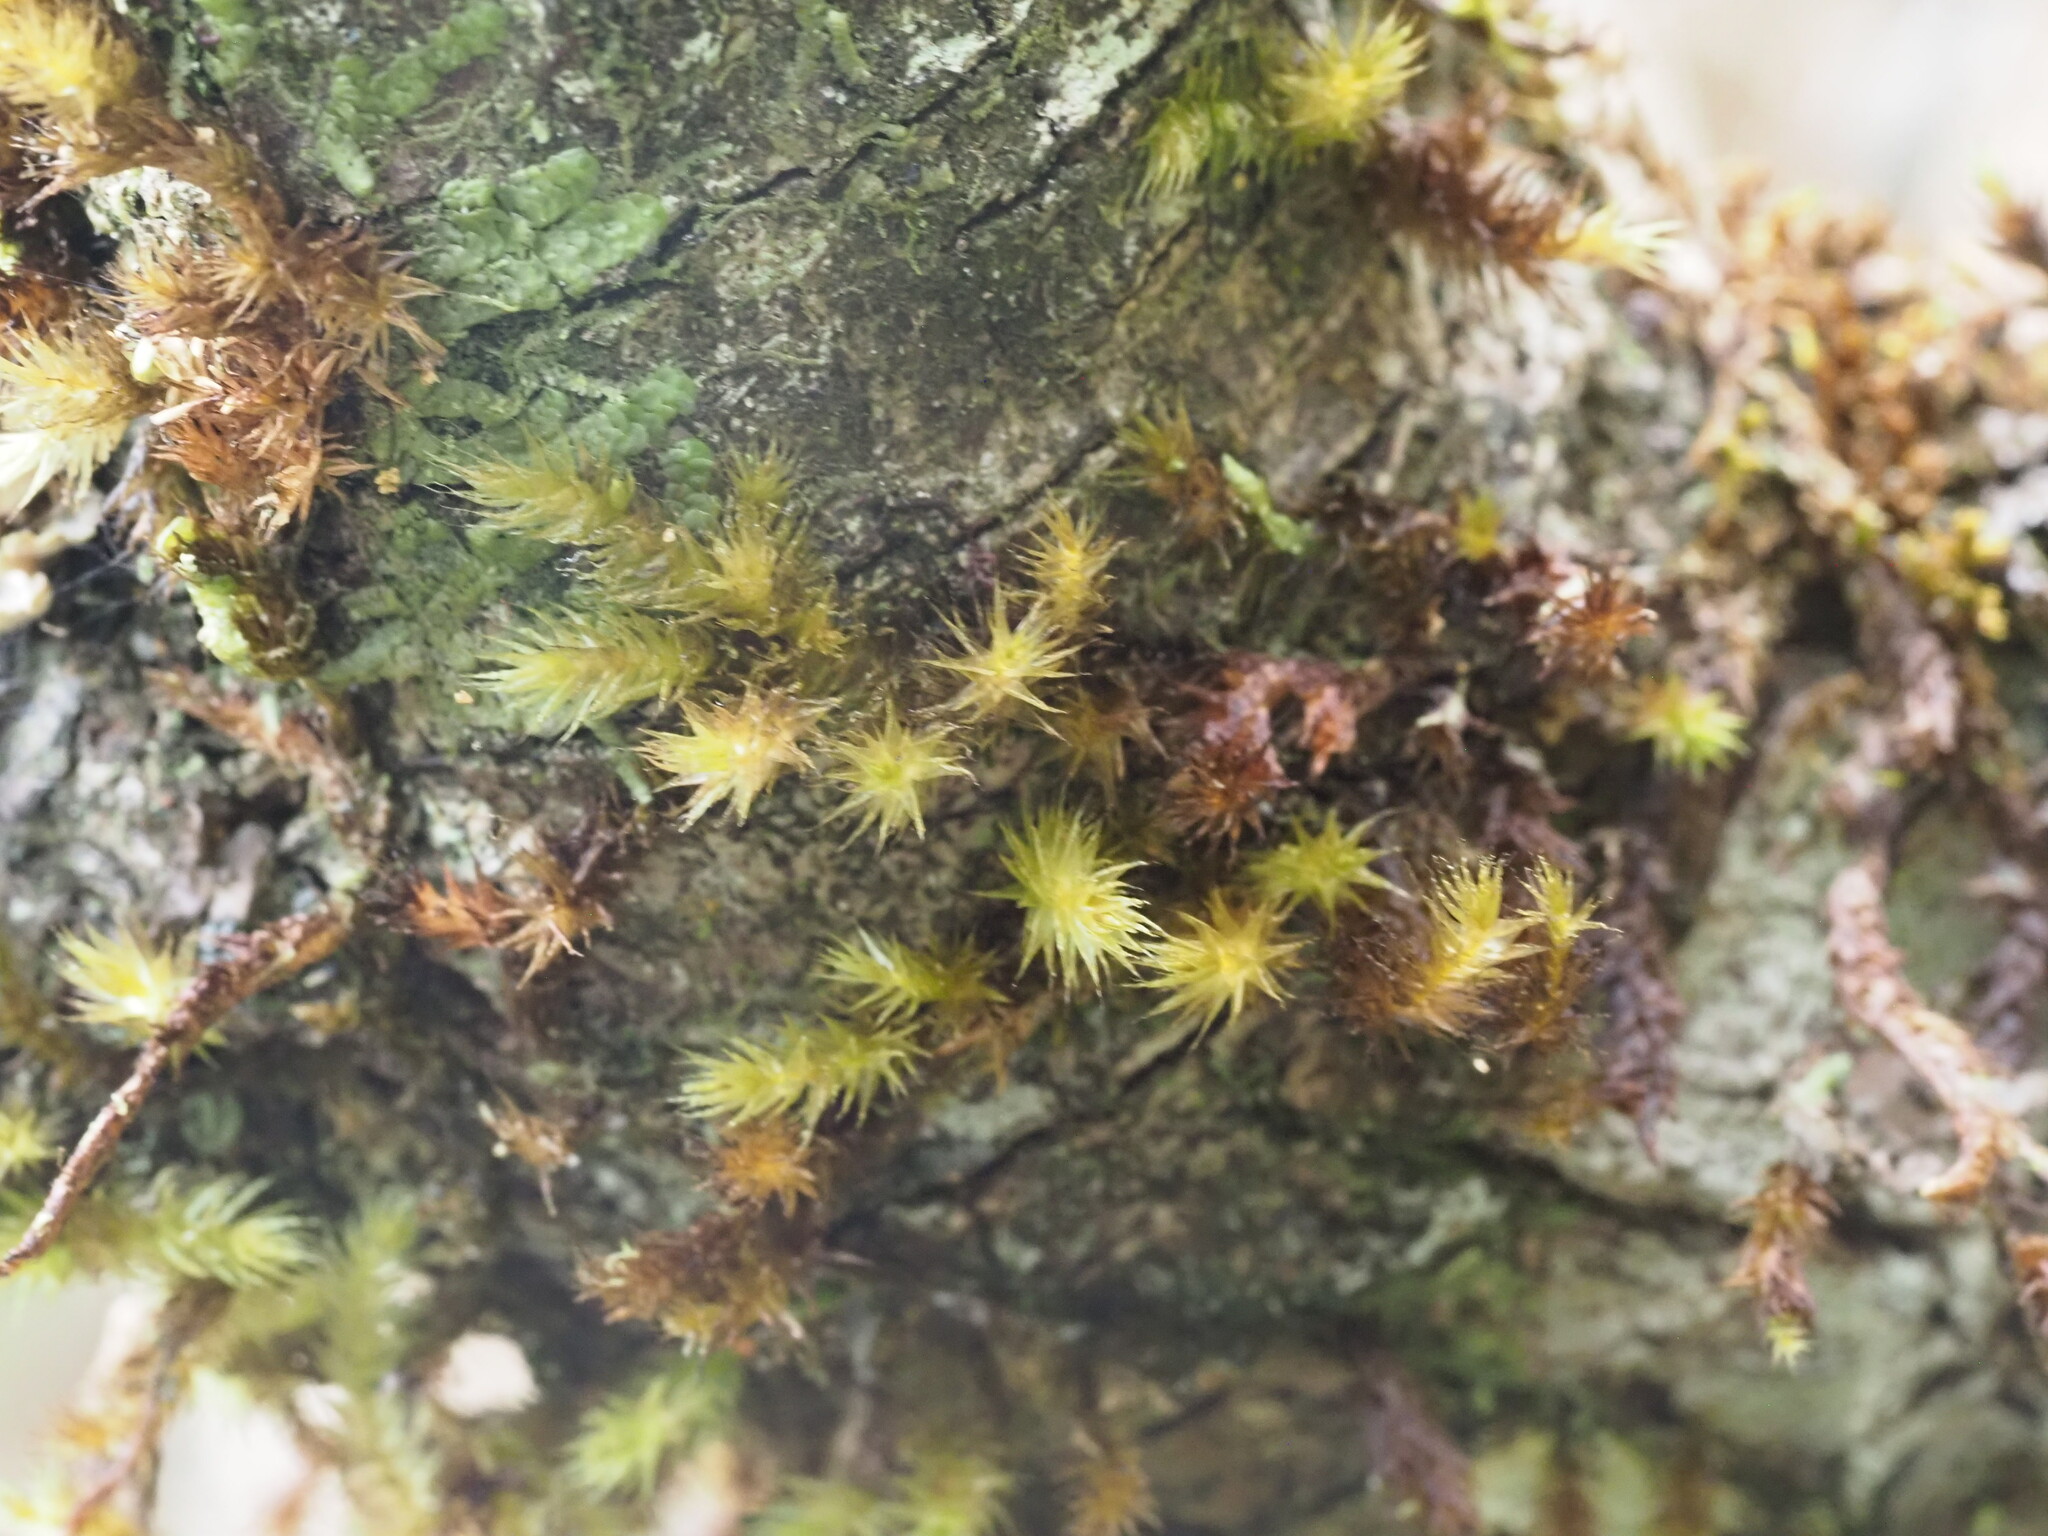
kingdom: Plantae
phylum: Bryophyta
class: Bryopsida
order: Hypnales
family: Meteoriaceae
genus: Aerobryopsis
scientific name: Aerobryopsis longissima
